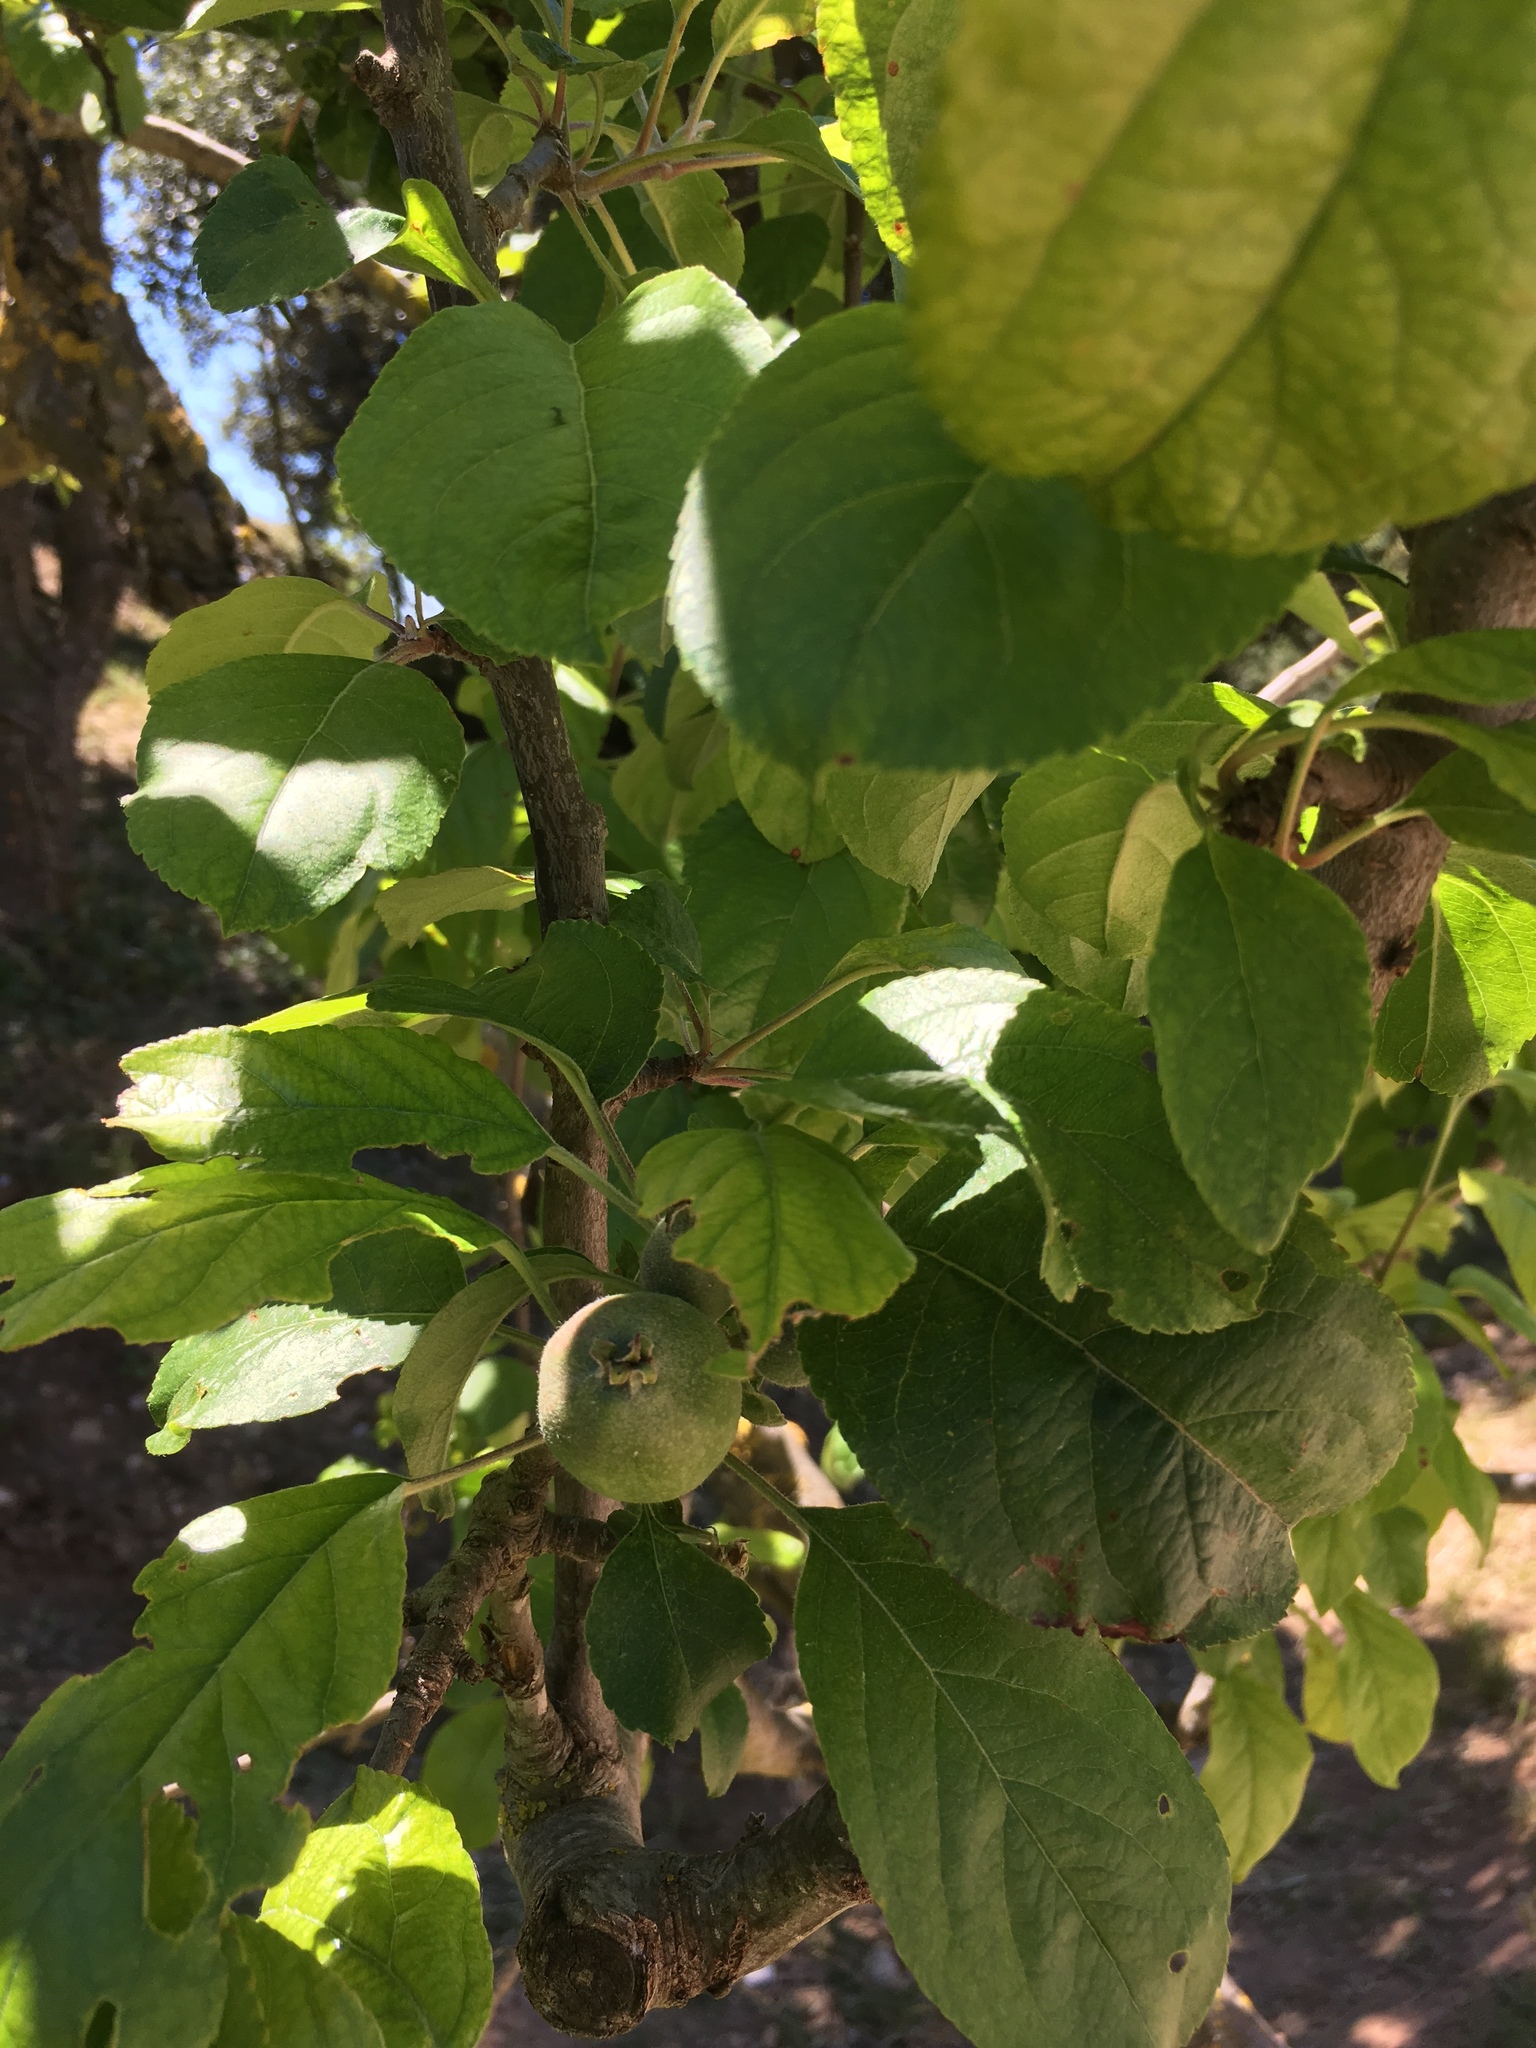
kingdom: Plantae
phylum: Tracheophyta
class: Magnoliopsida
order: Rosales
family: Rosaceae
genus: Malus
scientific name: Malus domestica
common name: Apple
